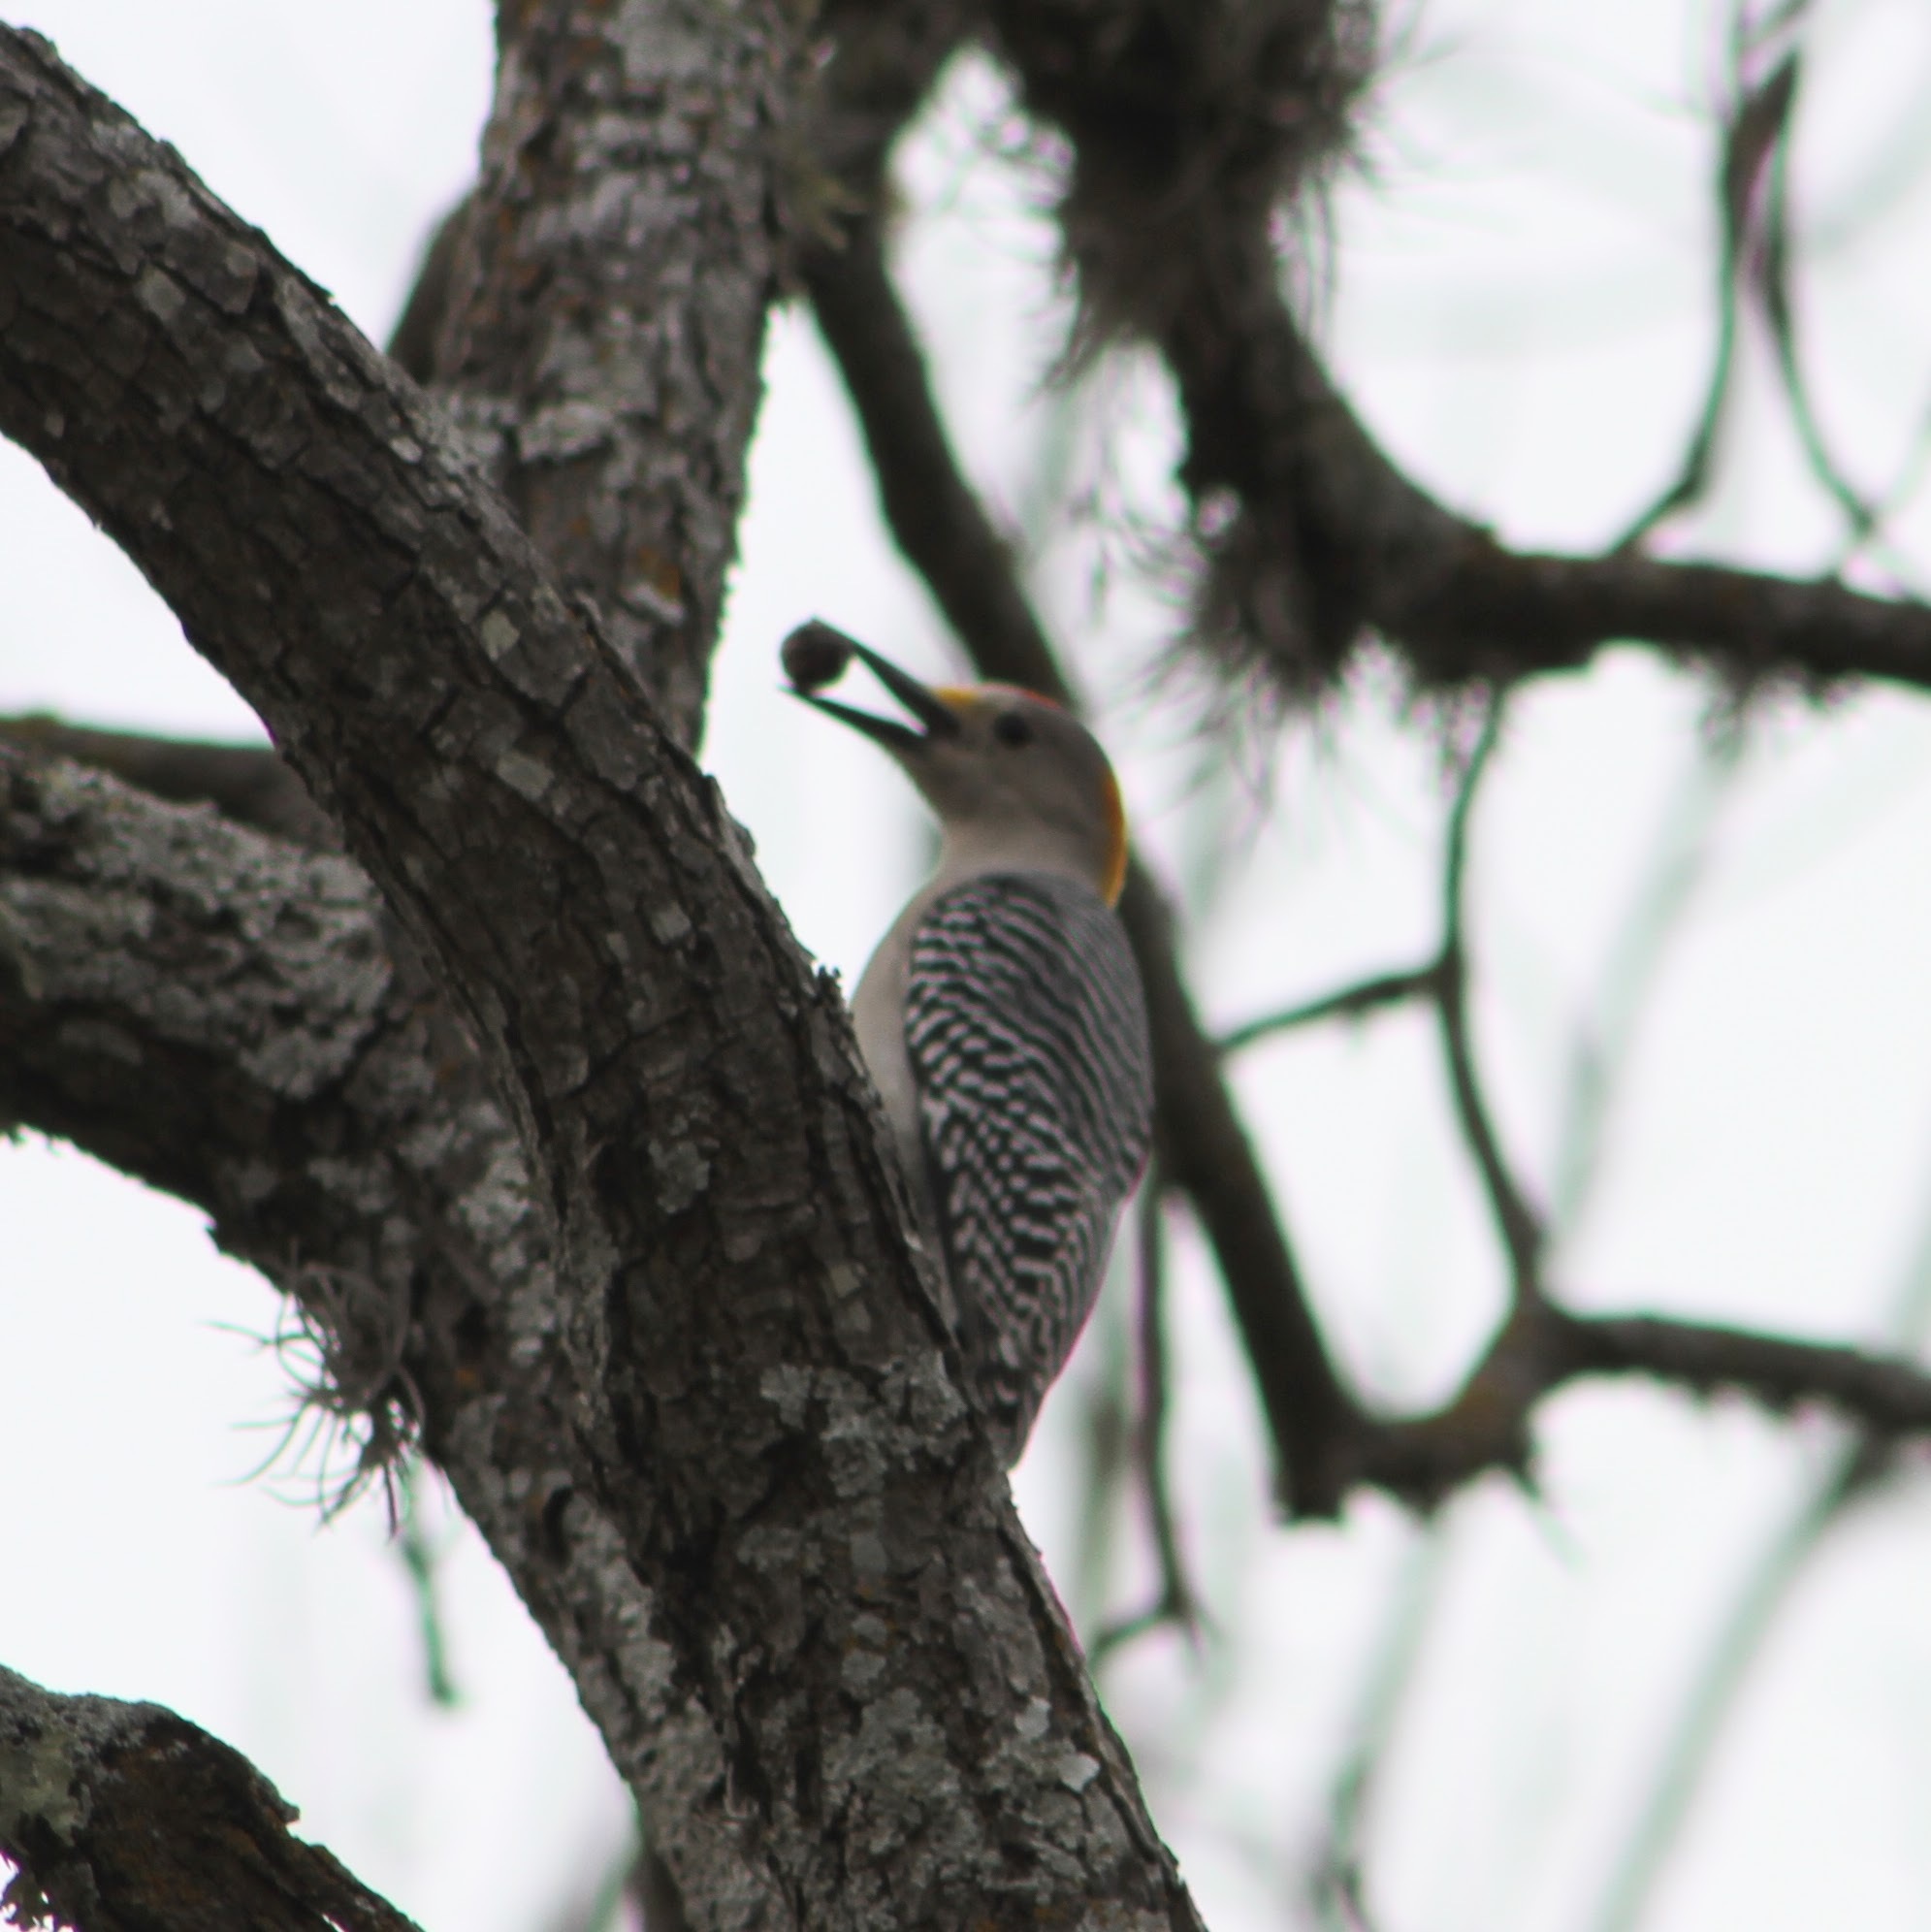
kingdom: Animalia
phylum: Chordata
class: Aves
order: Piciformes
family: Picidae
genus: Melanerpes
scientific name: Melanerpes aurifrons
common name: Golden-fronted woodpecker
